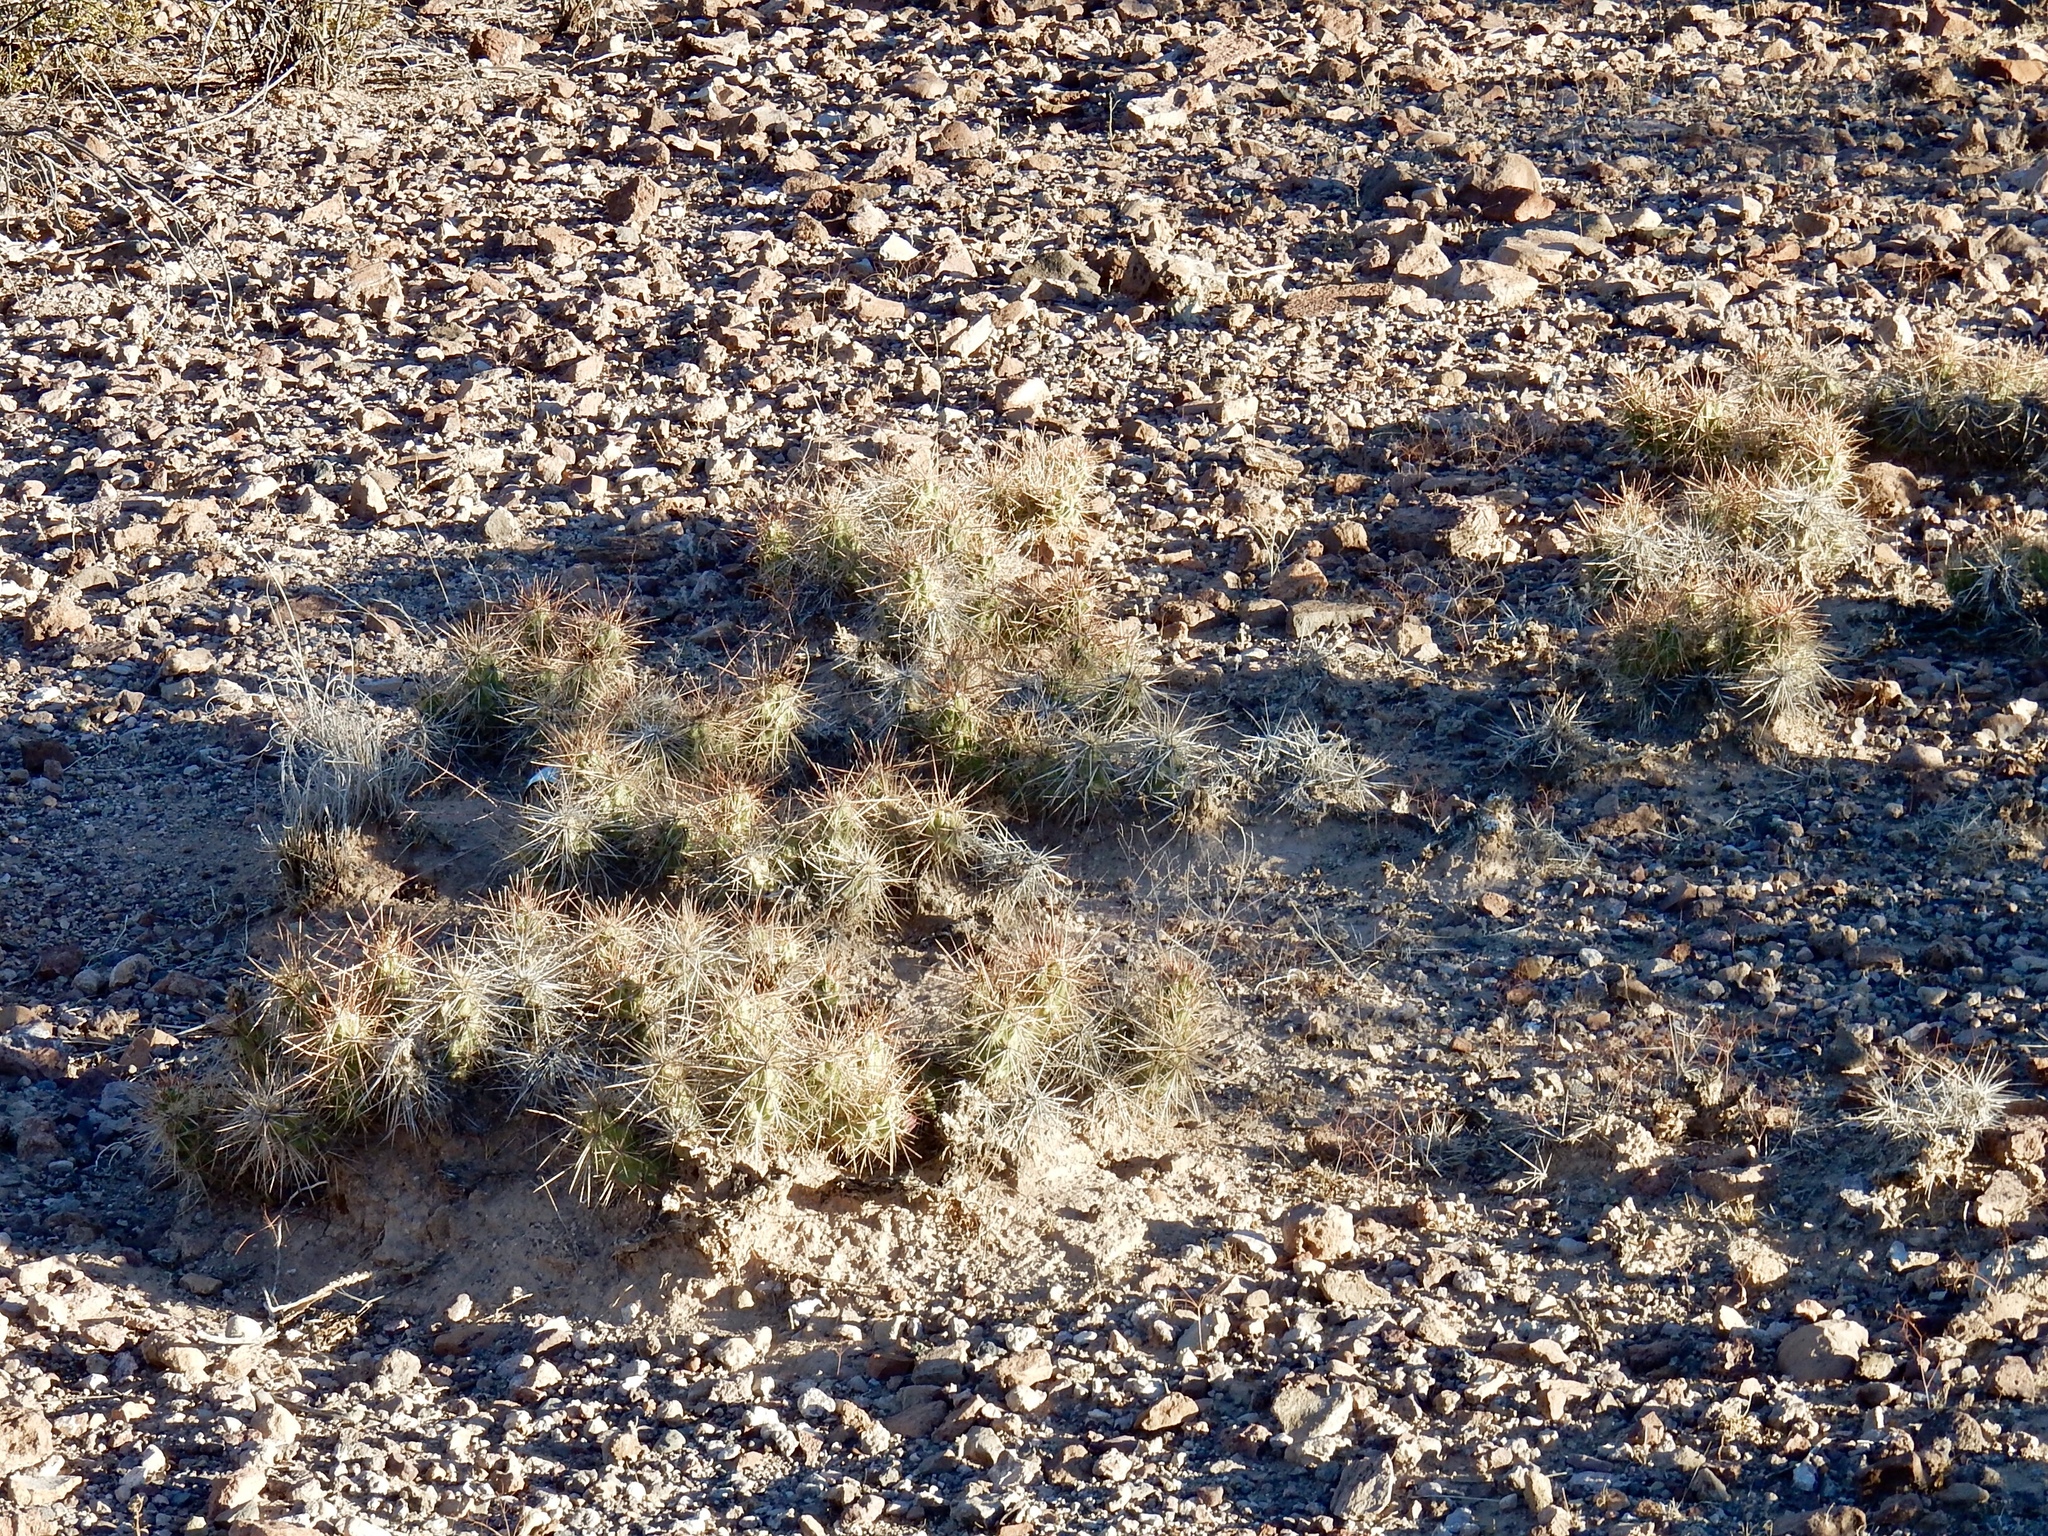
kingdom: Plantae
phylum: Tracheophyta
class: Magnoliopsida
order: Caryophyllales
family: Cactaceae
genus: Grusonia
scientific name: Grusonia emoryi
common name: Stanly's club cholla
